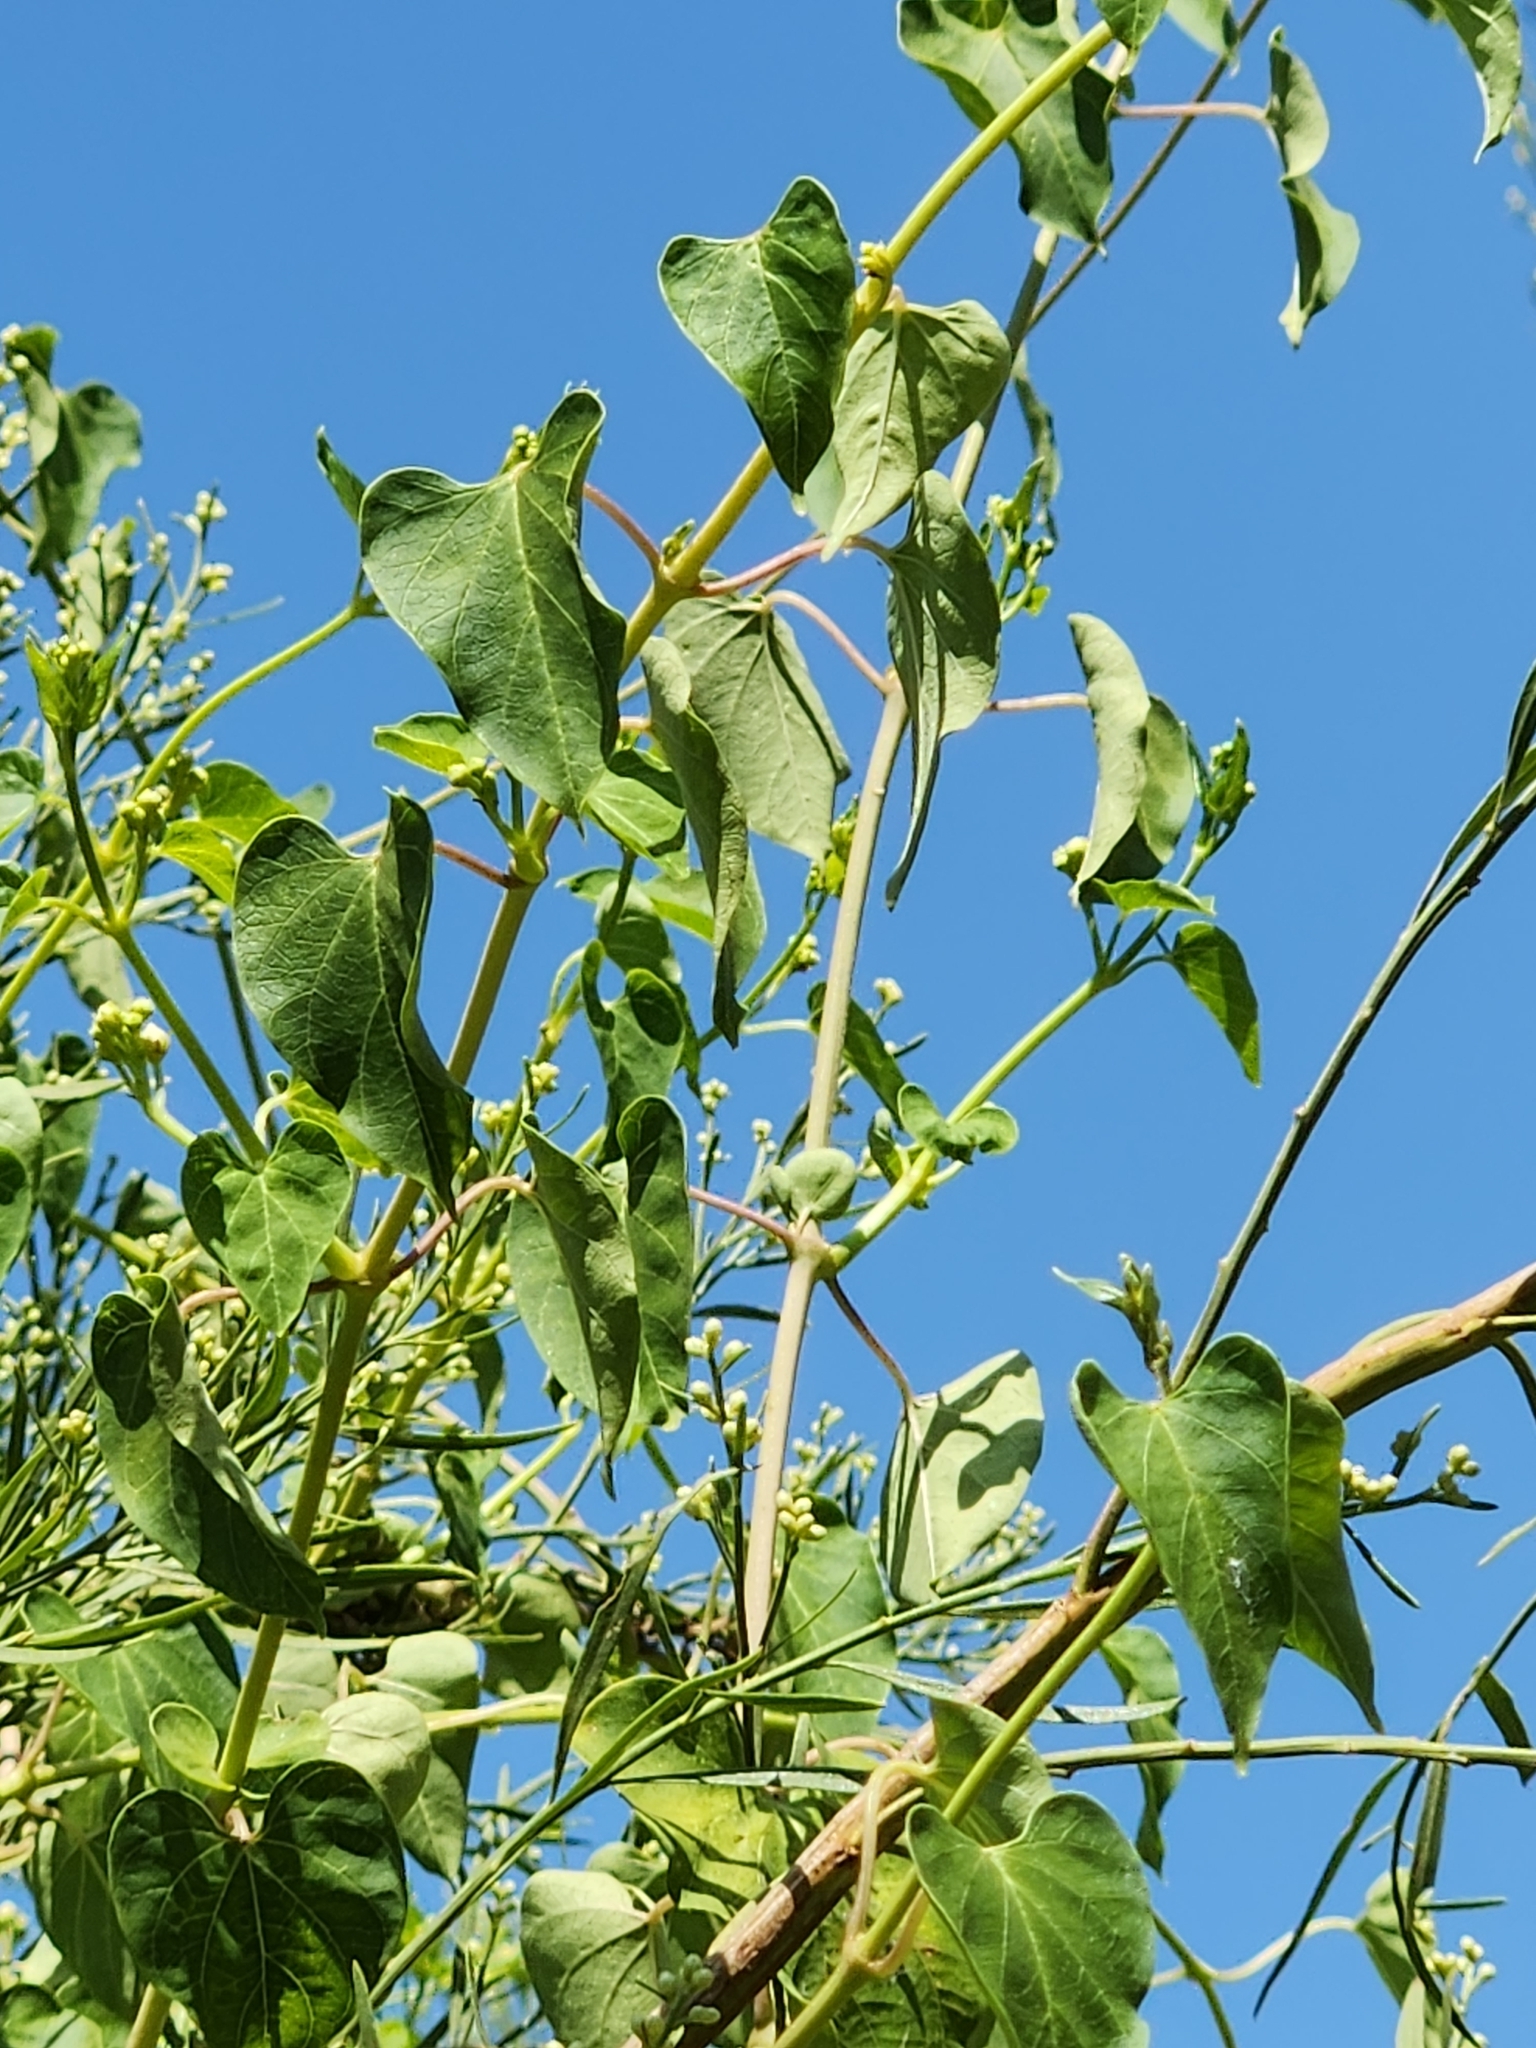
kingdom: Plantae
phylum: Tracheophyta
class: Magnoliopsida
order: Gentianales
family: Apocynaceae
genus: Cynanchum
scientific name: Cynanchum racemosum
